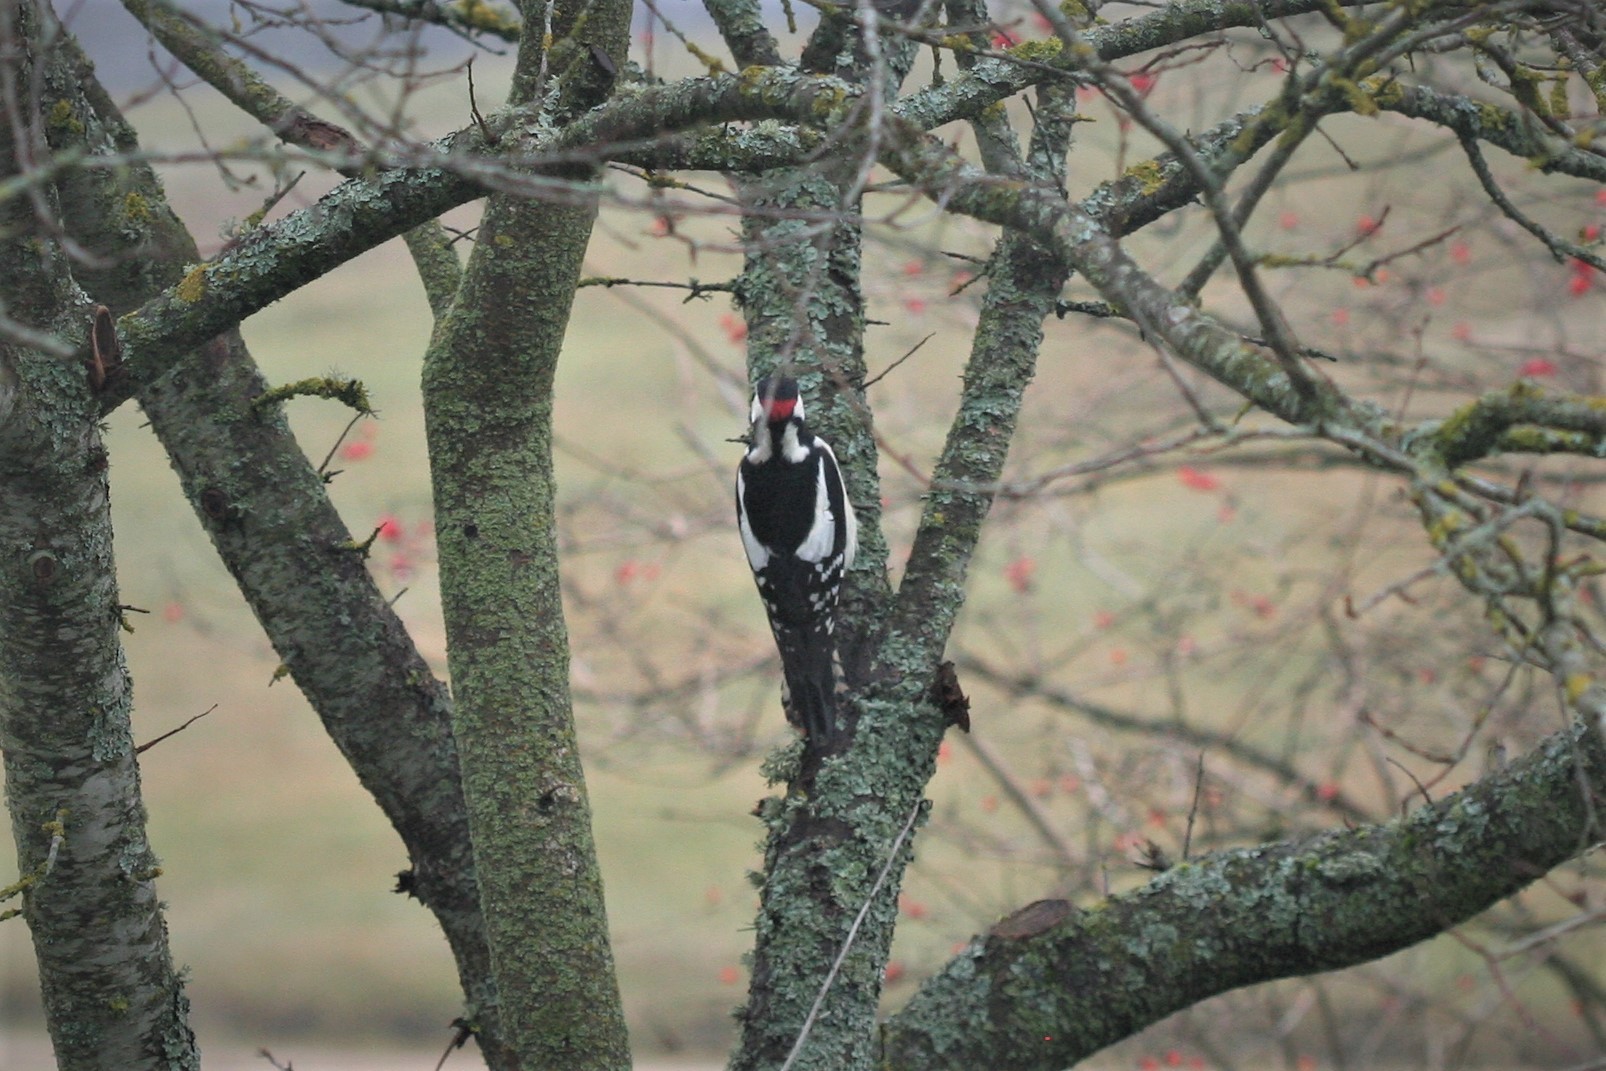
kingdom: Animalia
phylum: Chordata
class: Aves
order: Piciformes
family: Picidae
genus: Dendrocopos
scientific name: Dendrocopos major
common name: Great spotted woodpecker
